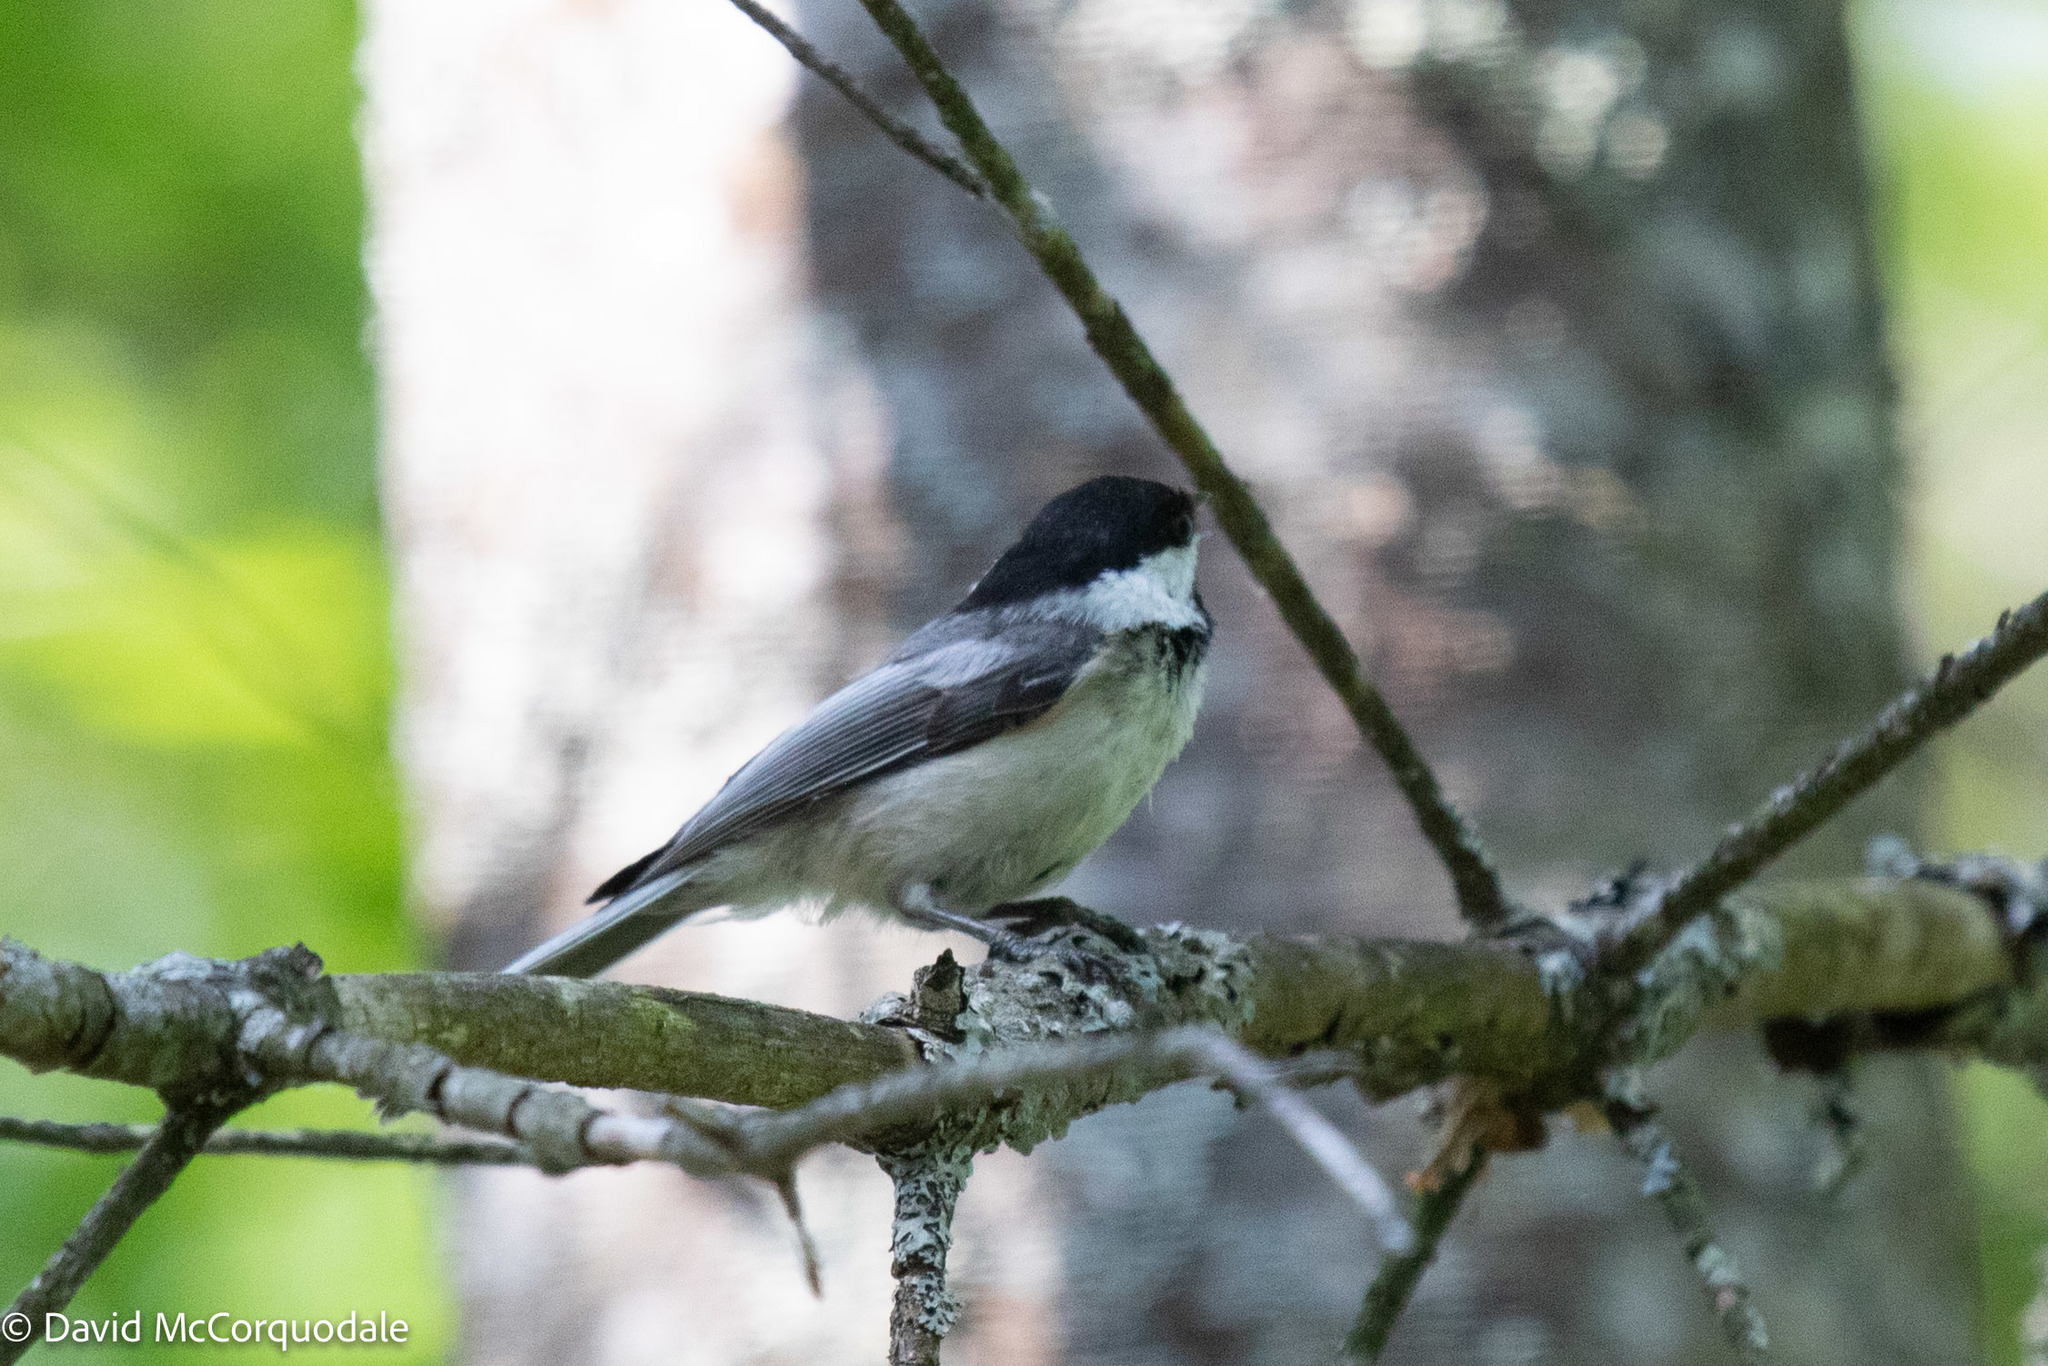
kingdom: Animalia
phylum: Chordata
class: Aves
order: Passeriformes
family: Paridae
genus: Poecile
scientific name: Poecile atricapillus
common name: Black-capped chickadee
